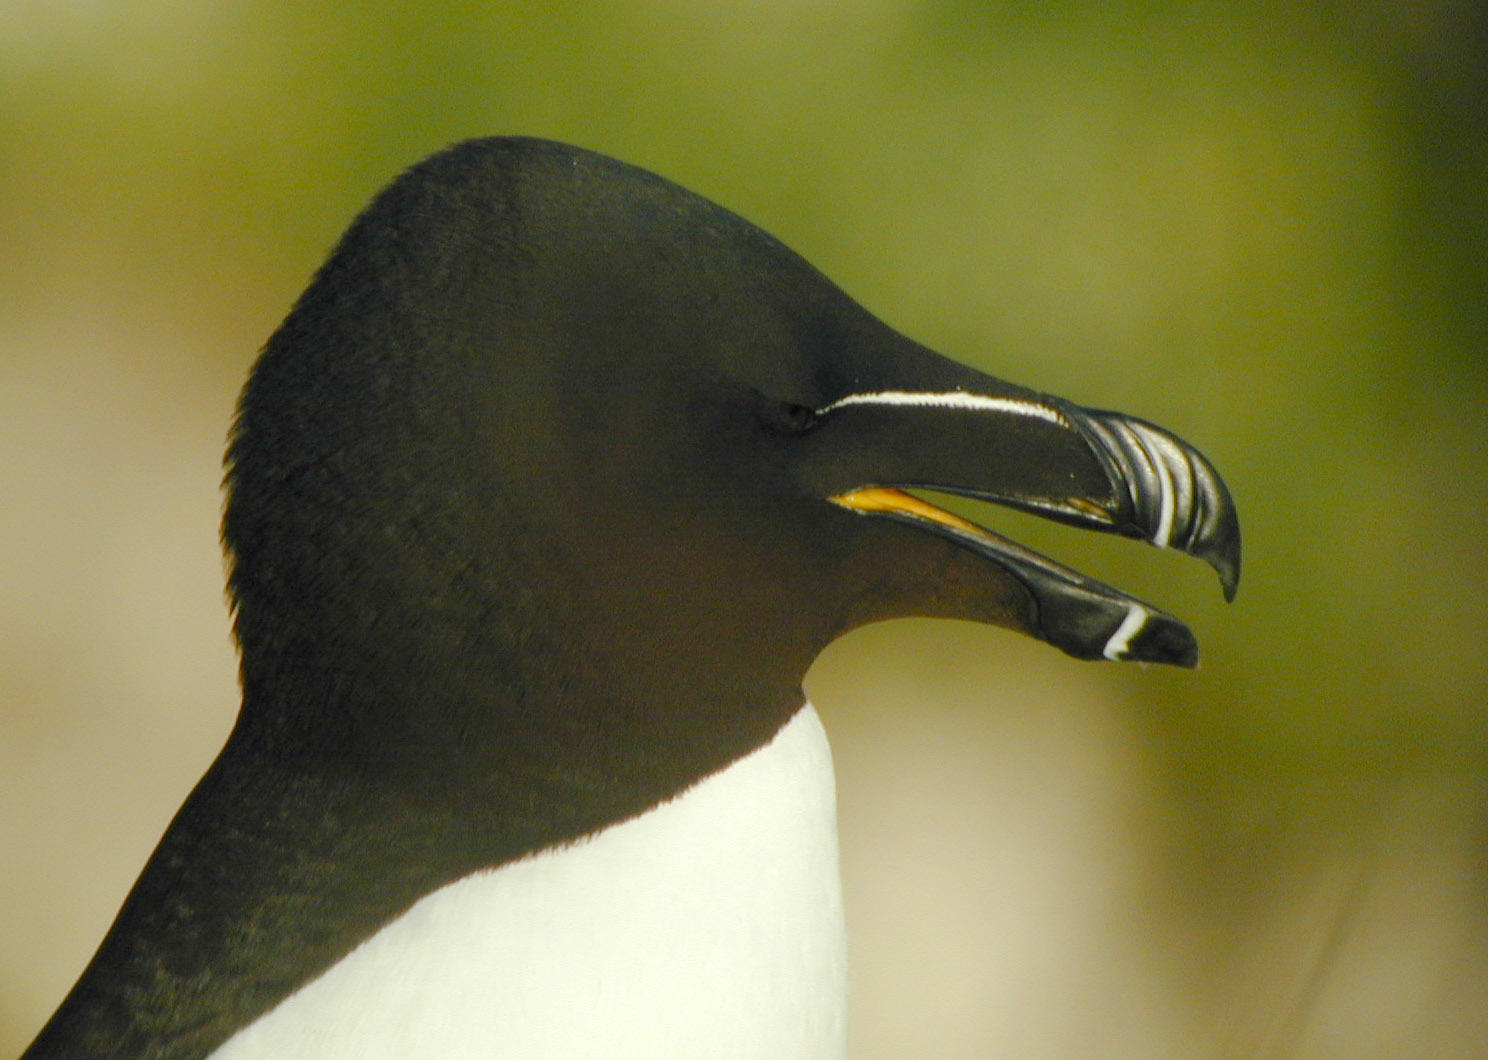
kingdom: Animalia
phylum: Chordata
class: Aves
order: Charadriiformes
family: Alcidae
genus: Alca
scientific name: Alca torda
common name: Razorbill
